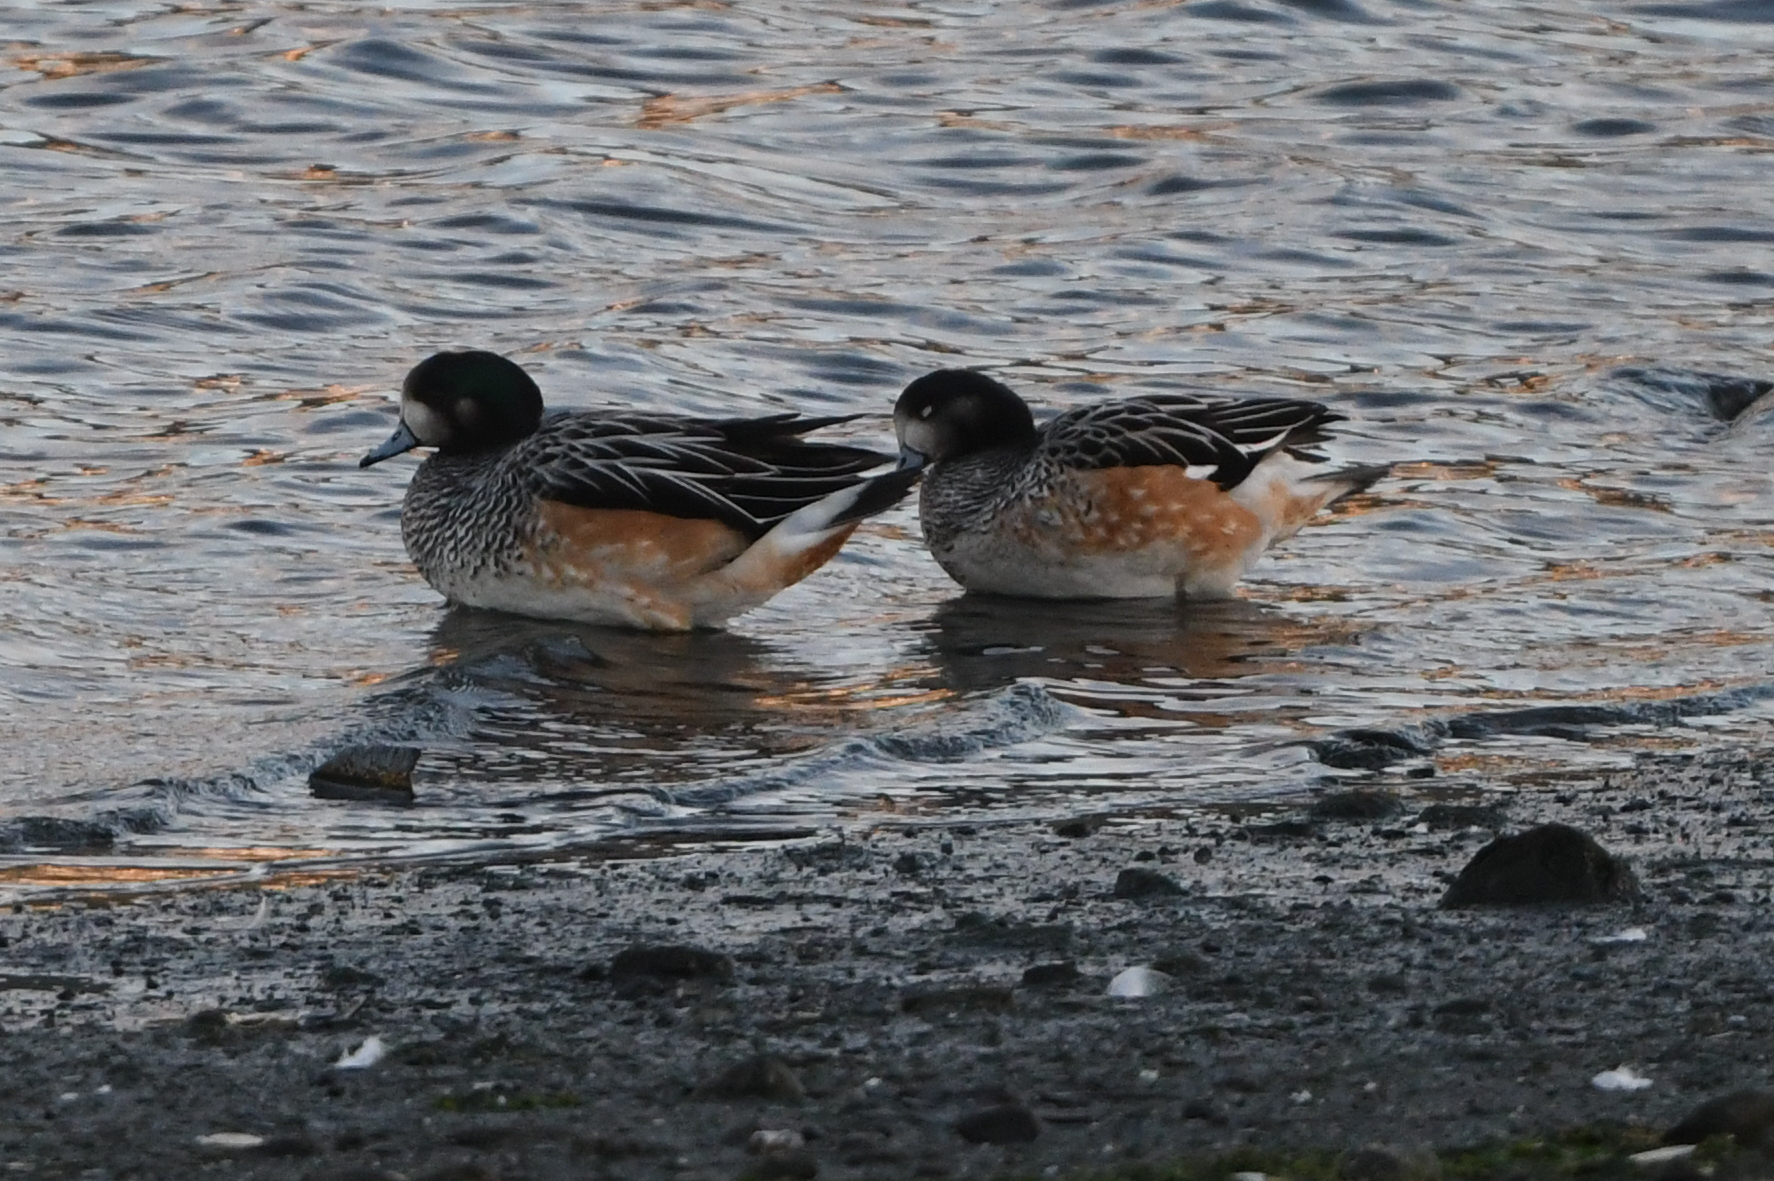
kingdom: Animalia
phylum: Chordata
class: Aves
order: Anseriformes
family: Anatidae
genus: Mareca
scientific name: Mareca sibilatrix
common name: Chiloe wigeon
